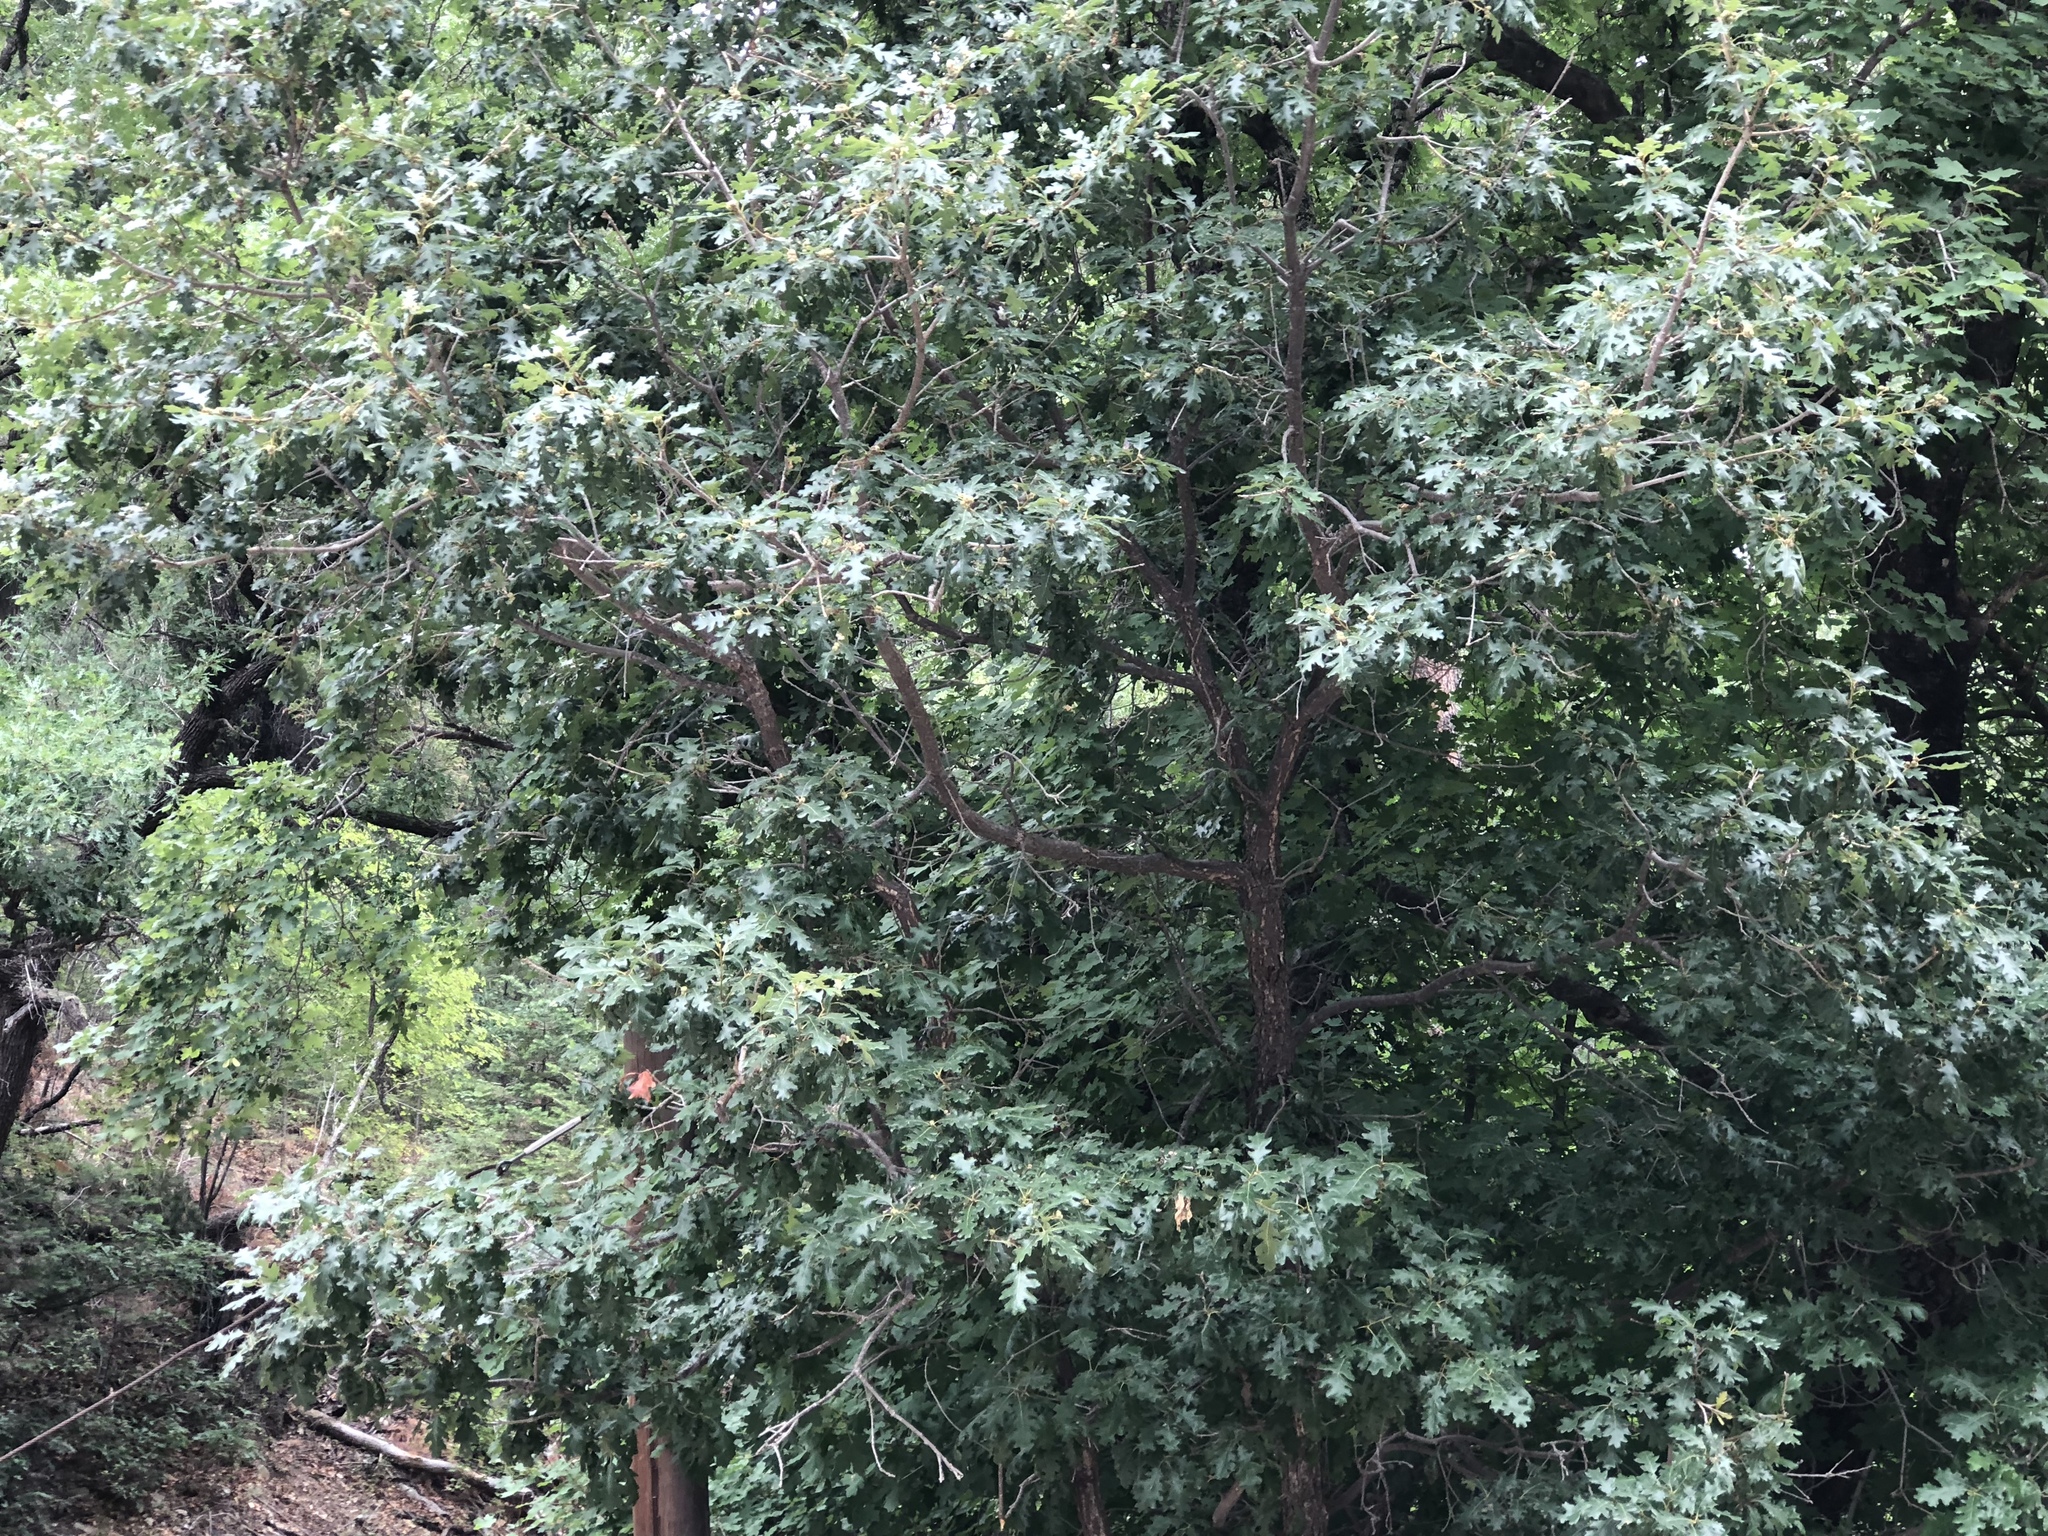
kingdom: Plantae
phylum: Tracheophyta
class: Magnoliopsida
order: Fagales
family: Fagaceae
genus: Quercus
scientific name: Quercus gambelii
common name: Gambel oak
